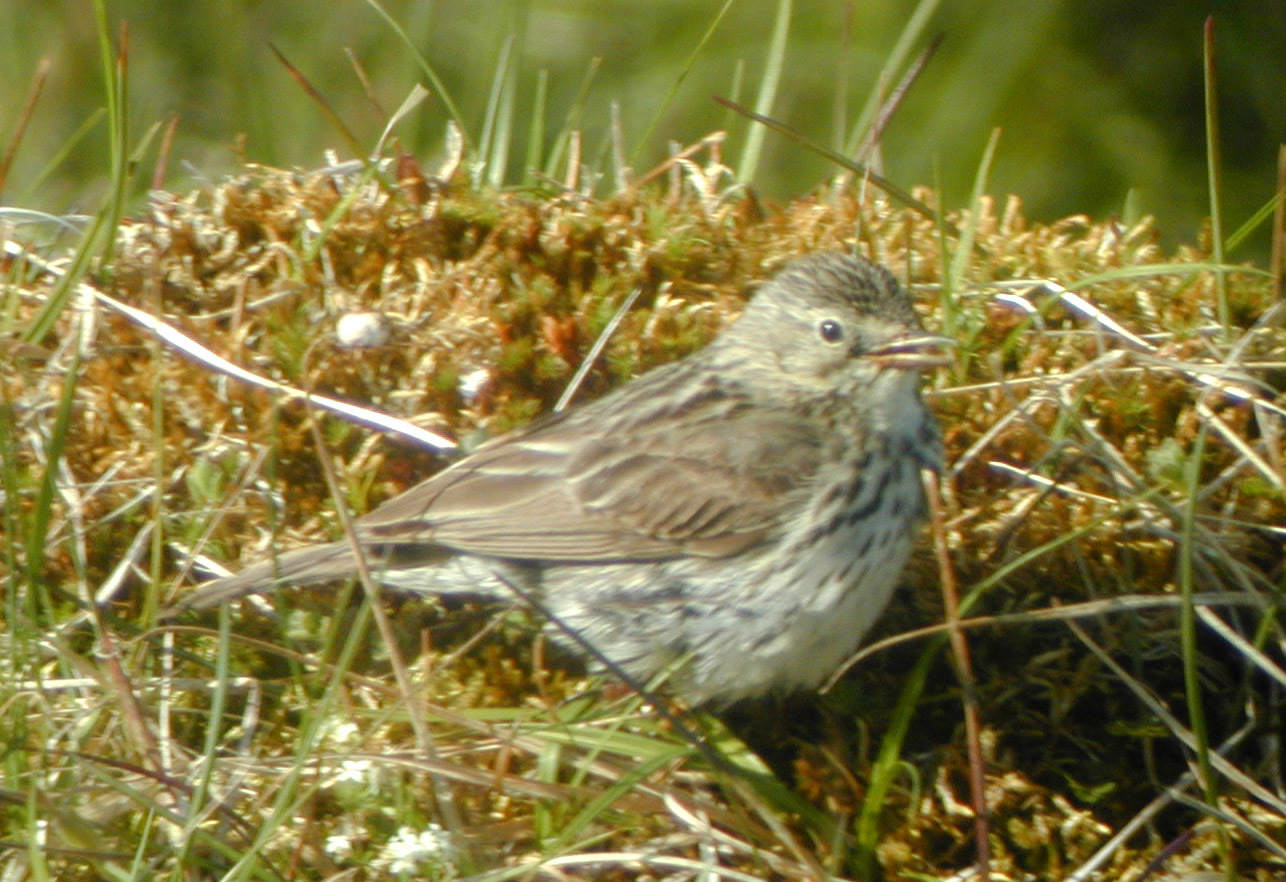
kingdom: Animalia
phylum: Chordata
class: Aves
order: Passeriformes
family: Motacillidae
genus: Anthus
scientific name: Anthus pratensis
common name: Meadow pipit
